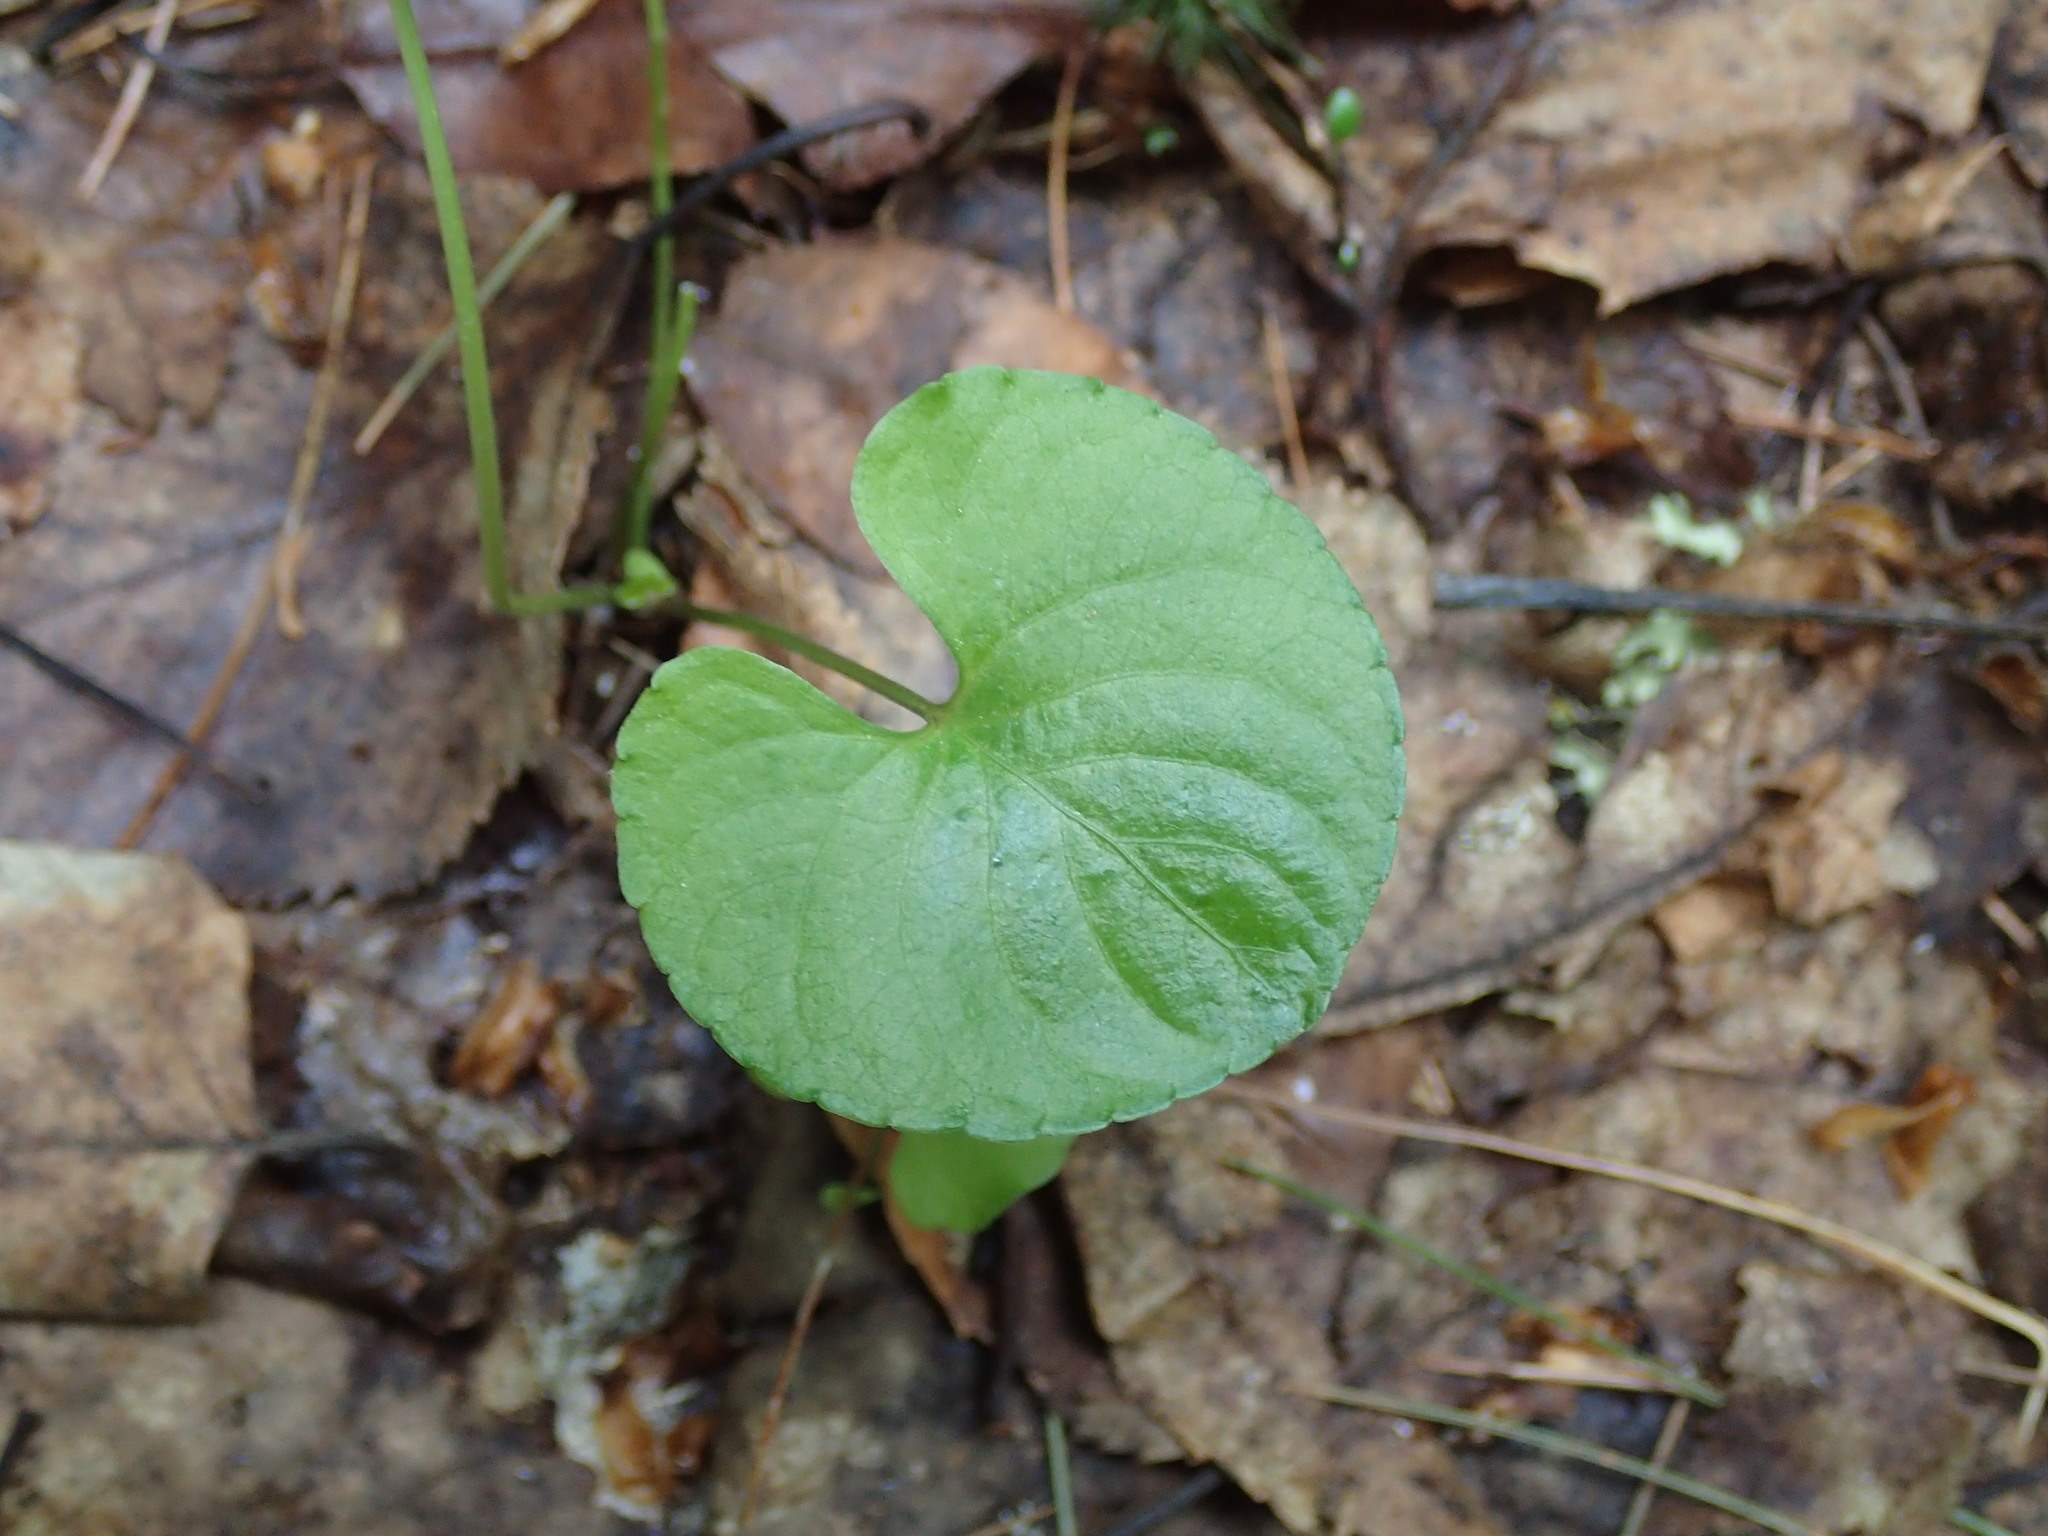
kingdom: Plantae
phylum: Tracheophyta
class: Magnoliopsida
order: Malpighiales
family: Violaceae
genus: Viola
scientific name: Viola renifolia
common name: Kidney-leaf violet
